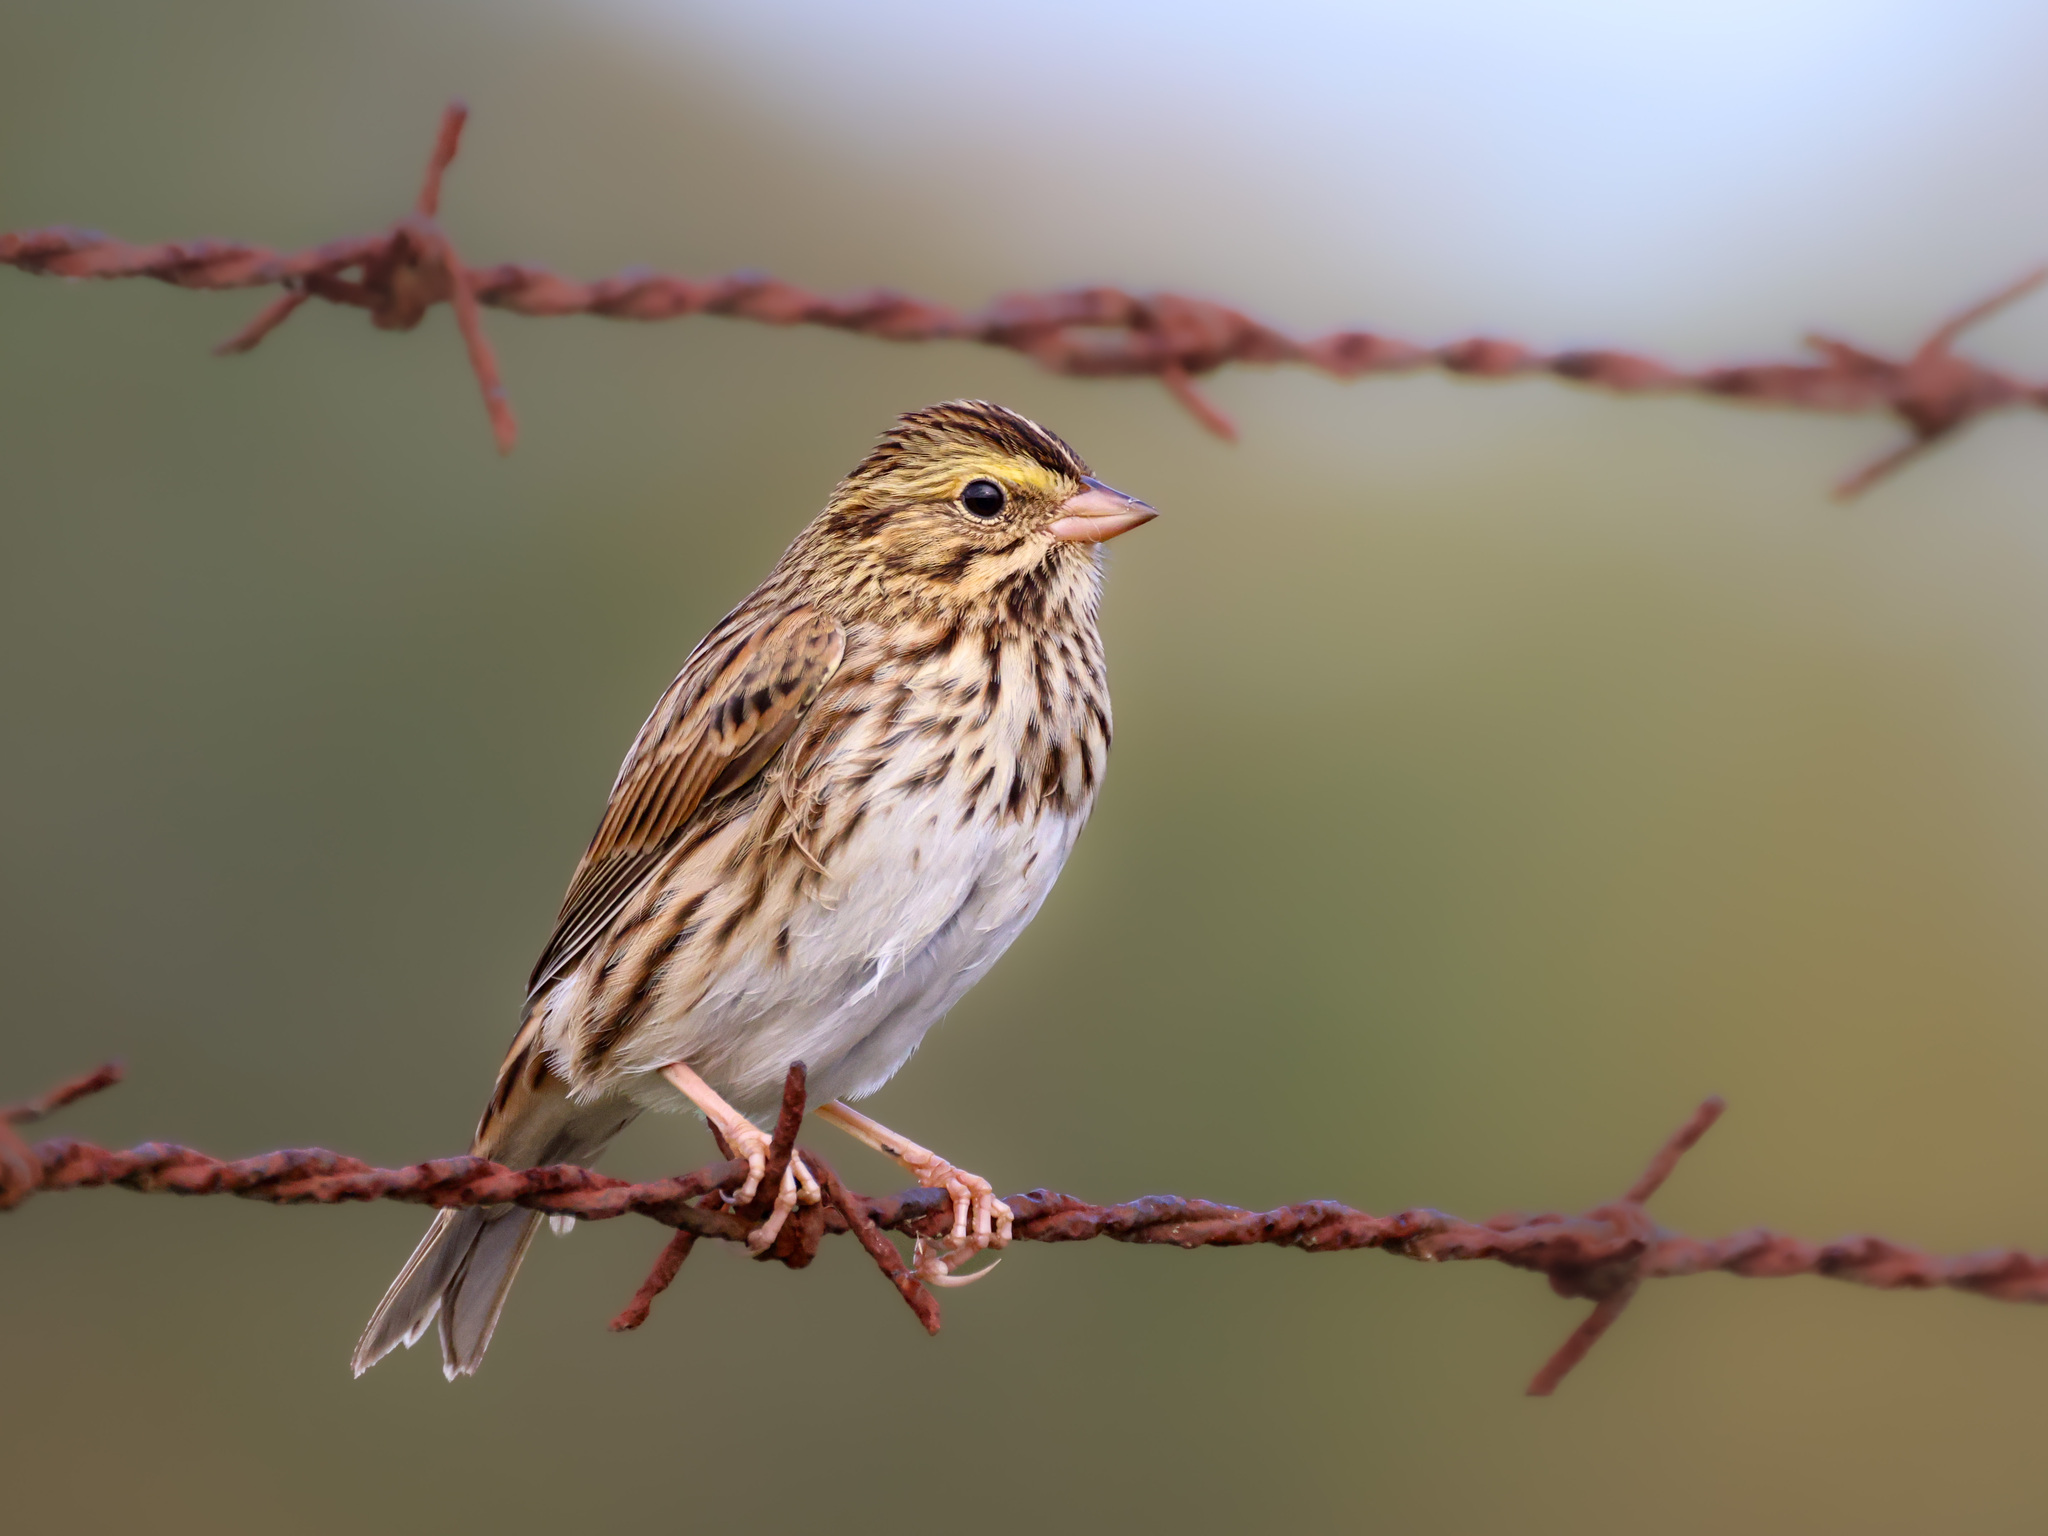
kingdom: Animalia
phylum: Chordata
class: Aves
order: Passeriformes
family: Passerellidae
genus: Passerculus
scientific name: Passerculus sandwichensis
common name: Savannah sparrow
